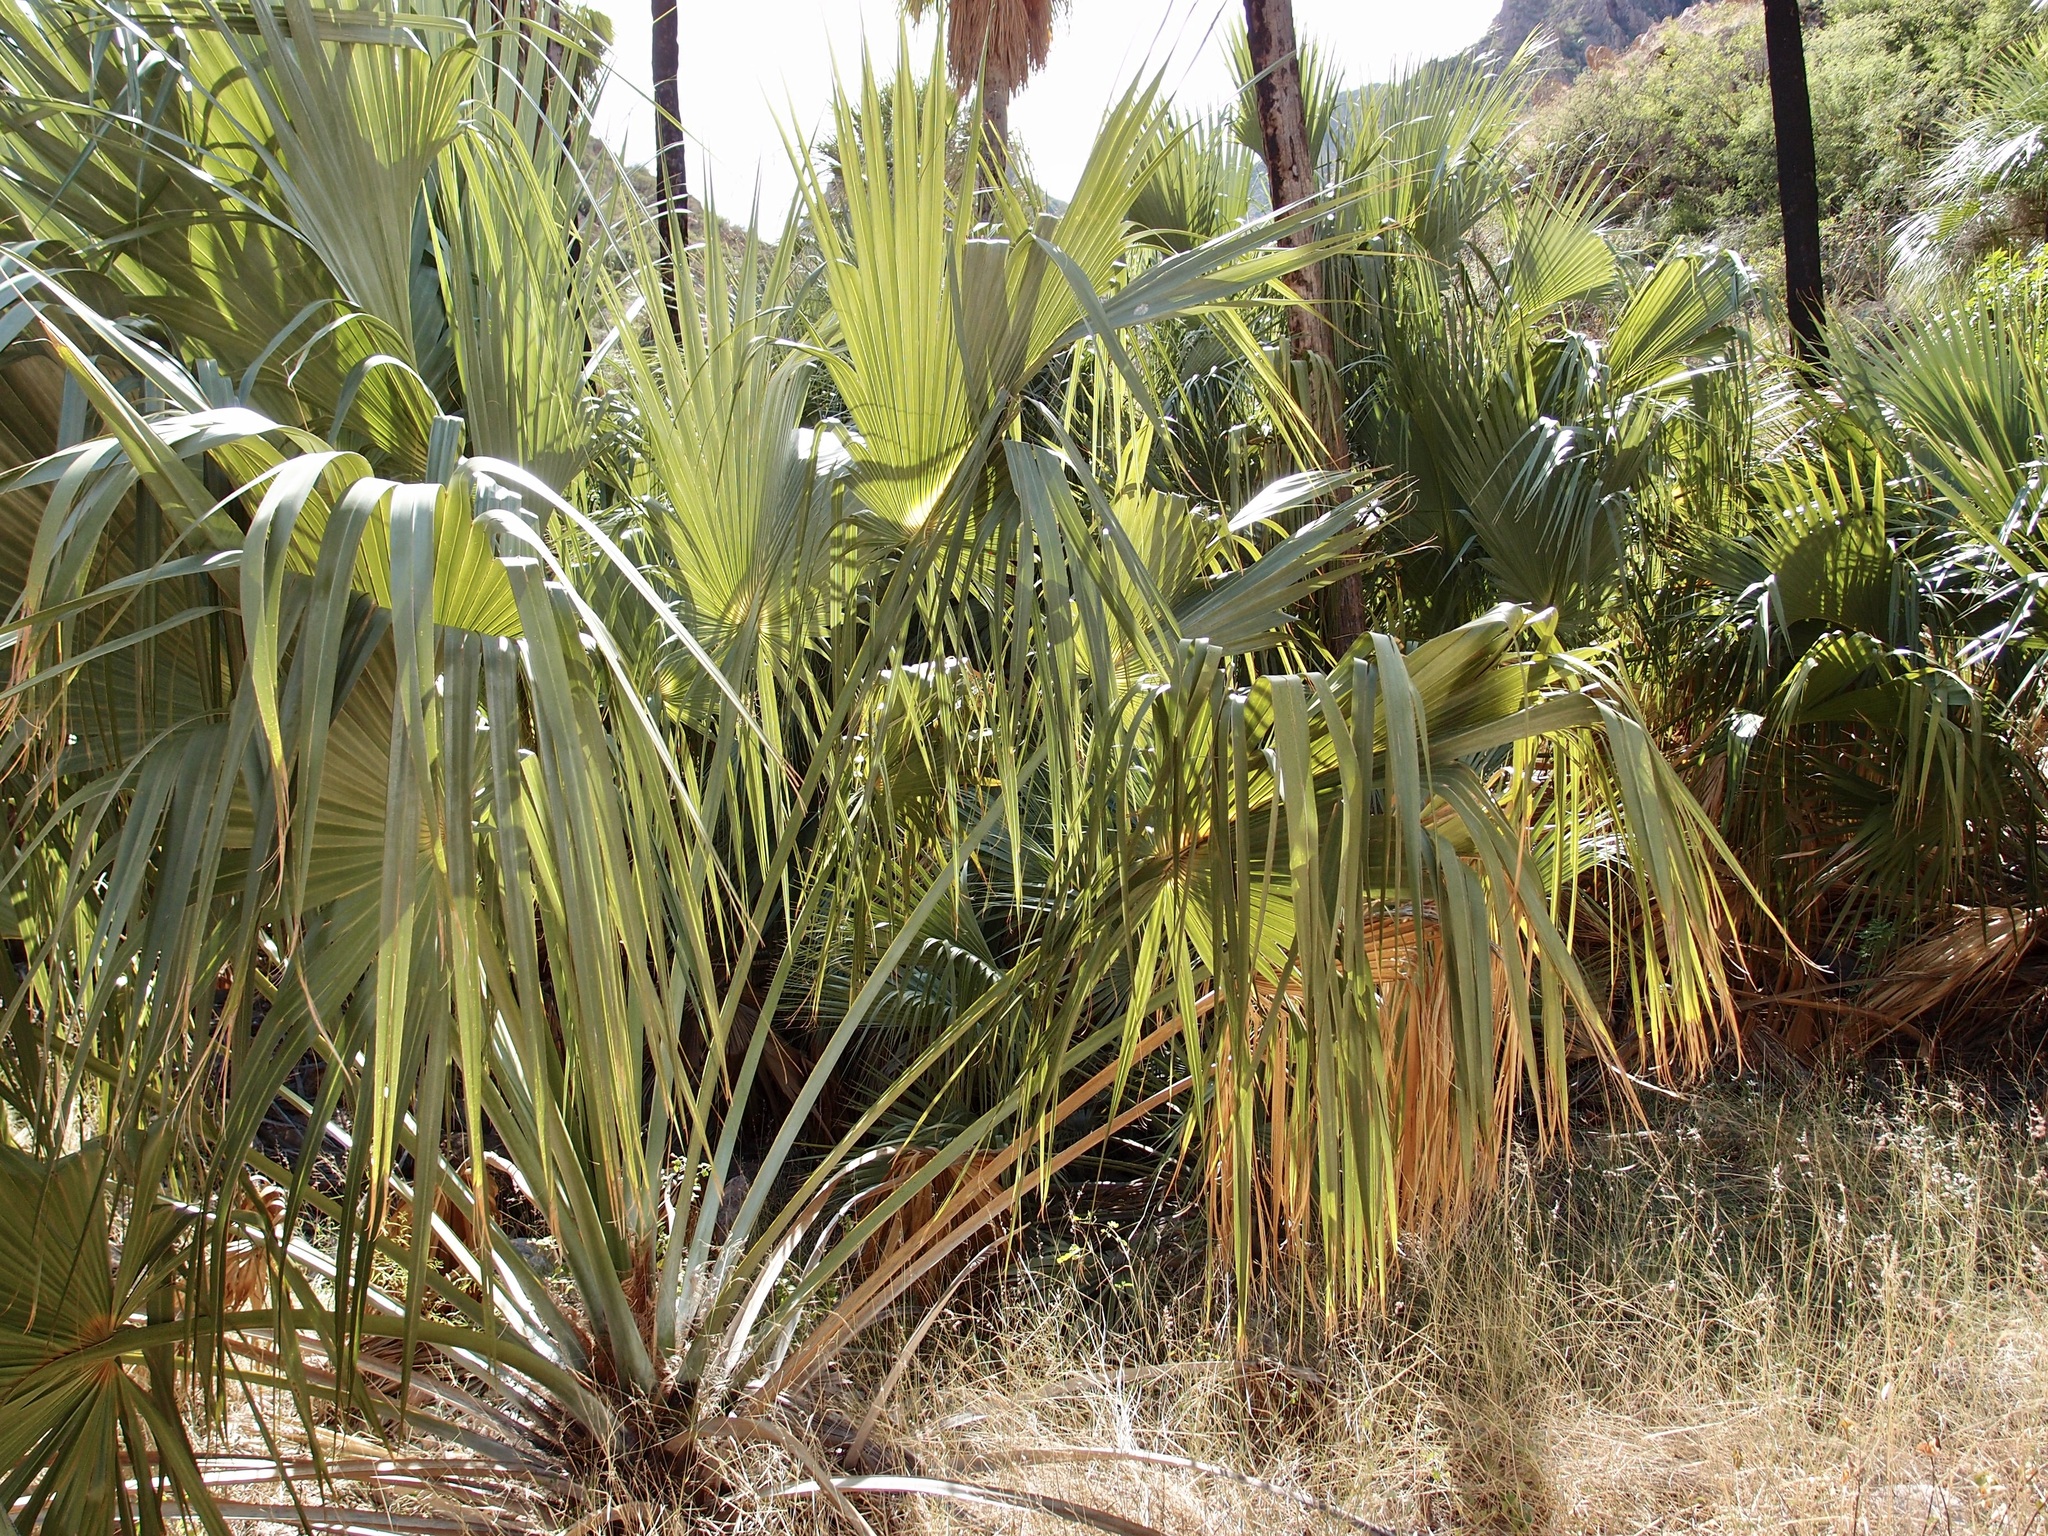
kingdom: Plantae
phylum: Tracheophyta
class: Liliopsida
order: Arecales
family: Arecaceae
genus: Sabal
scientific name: Sabal uresana
